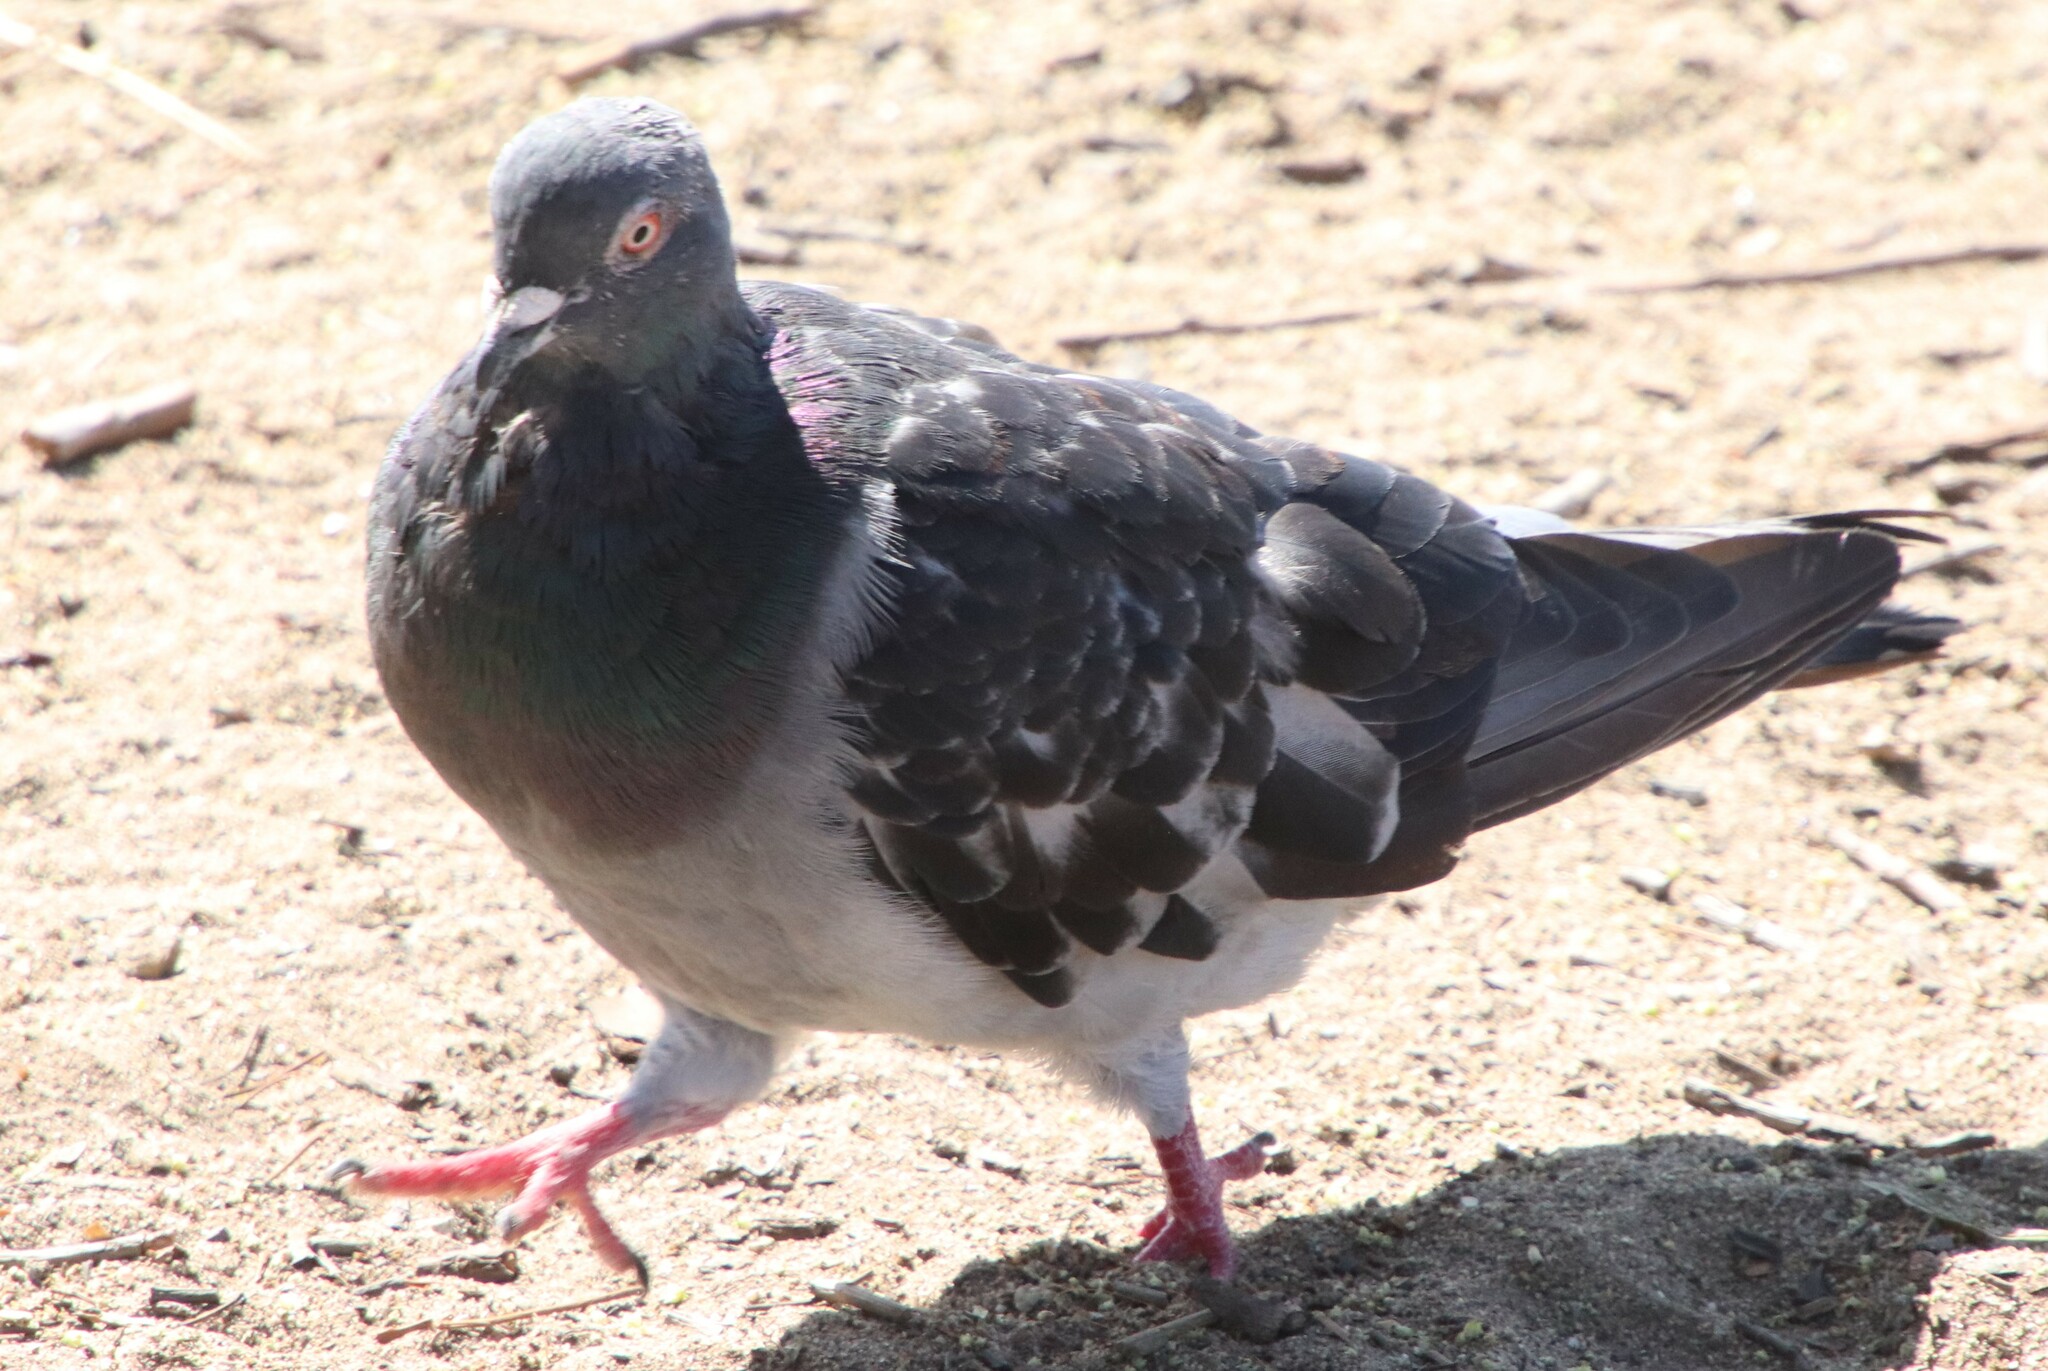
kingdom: Animalia
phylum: Chordata
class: Aves
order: Columbiformes
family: Columbidae
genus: Columba
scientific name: Columba livia
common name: Rock pigeon
